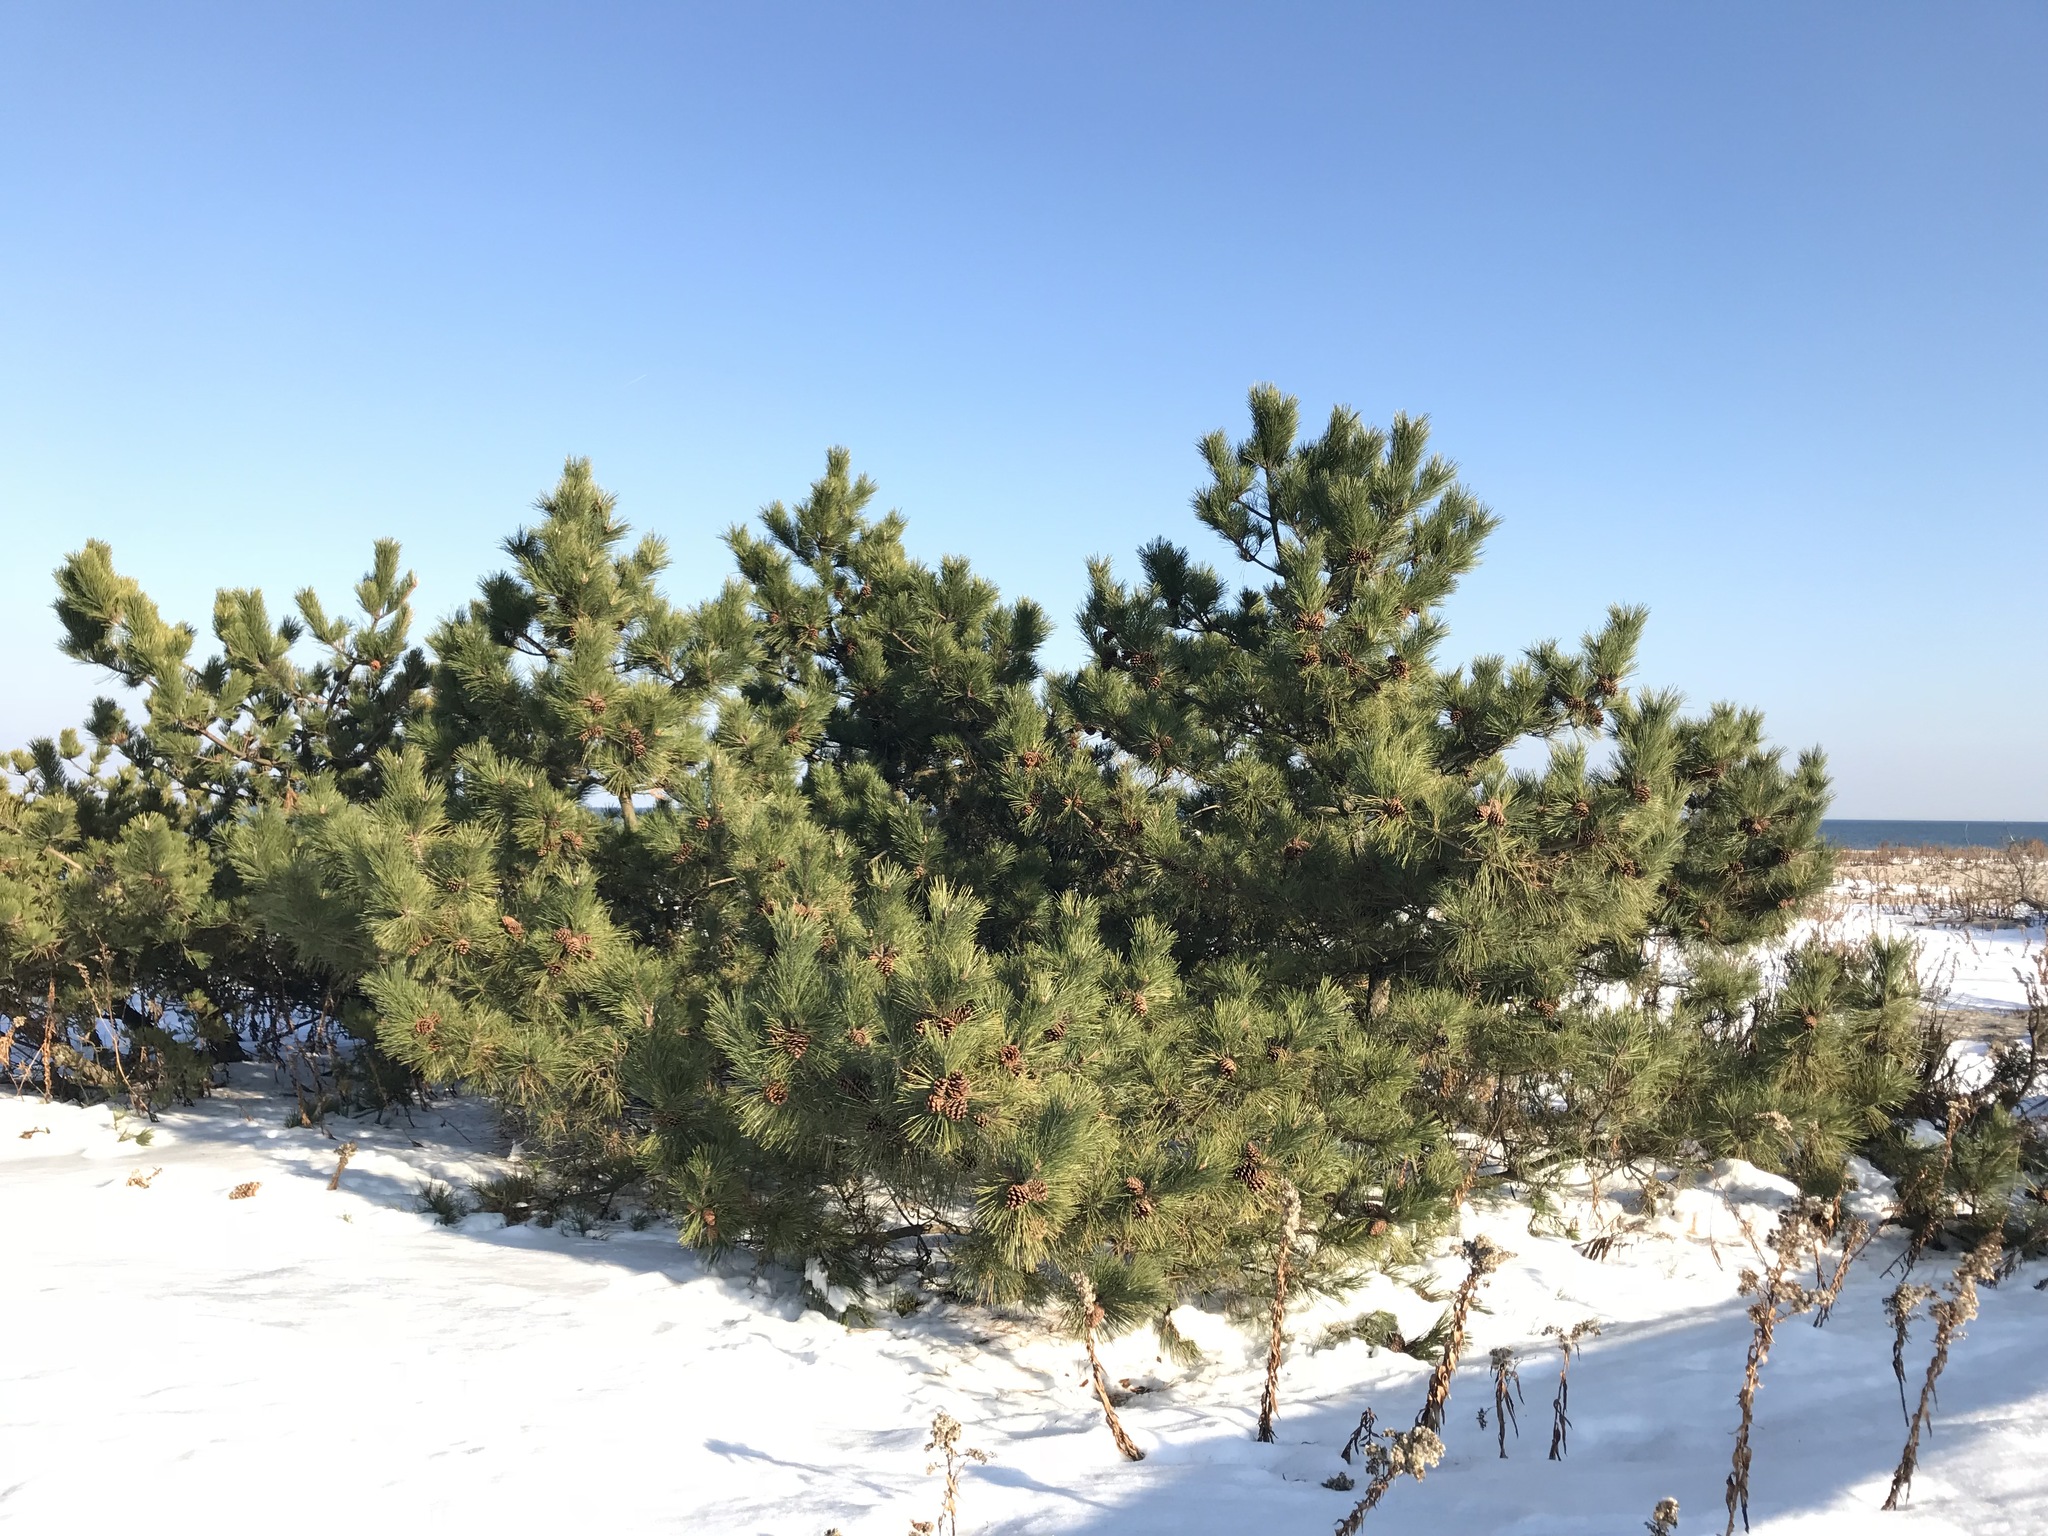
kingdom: Plantae
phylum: Tracheophyta
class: Pinopsida
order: Pinales
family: Pinaceae
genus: Pinus
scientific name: Pinus thunbergii
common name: Japanese black pine
